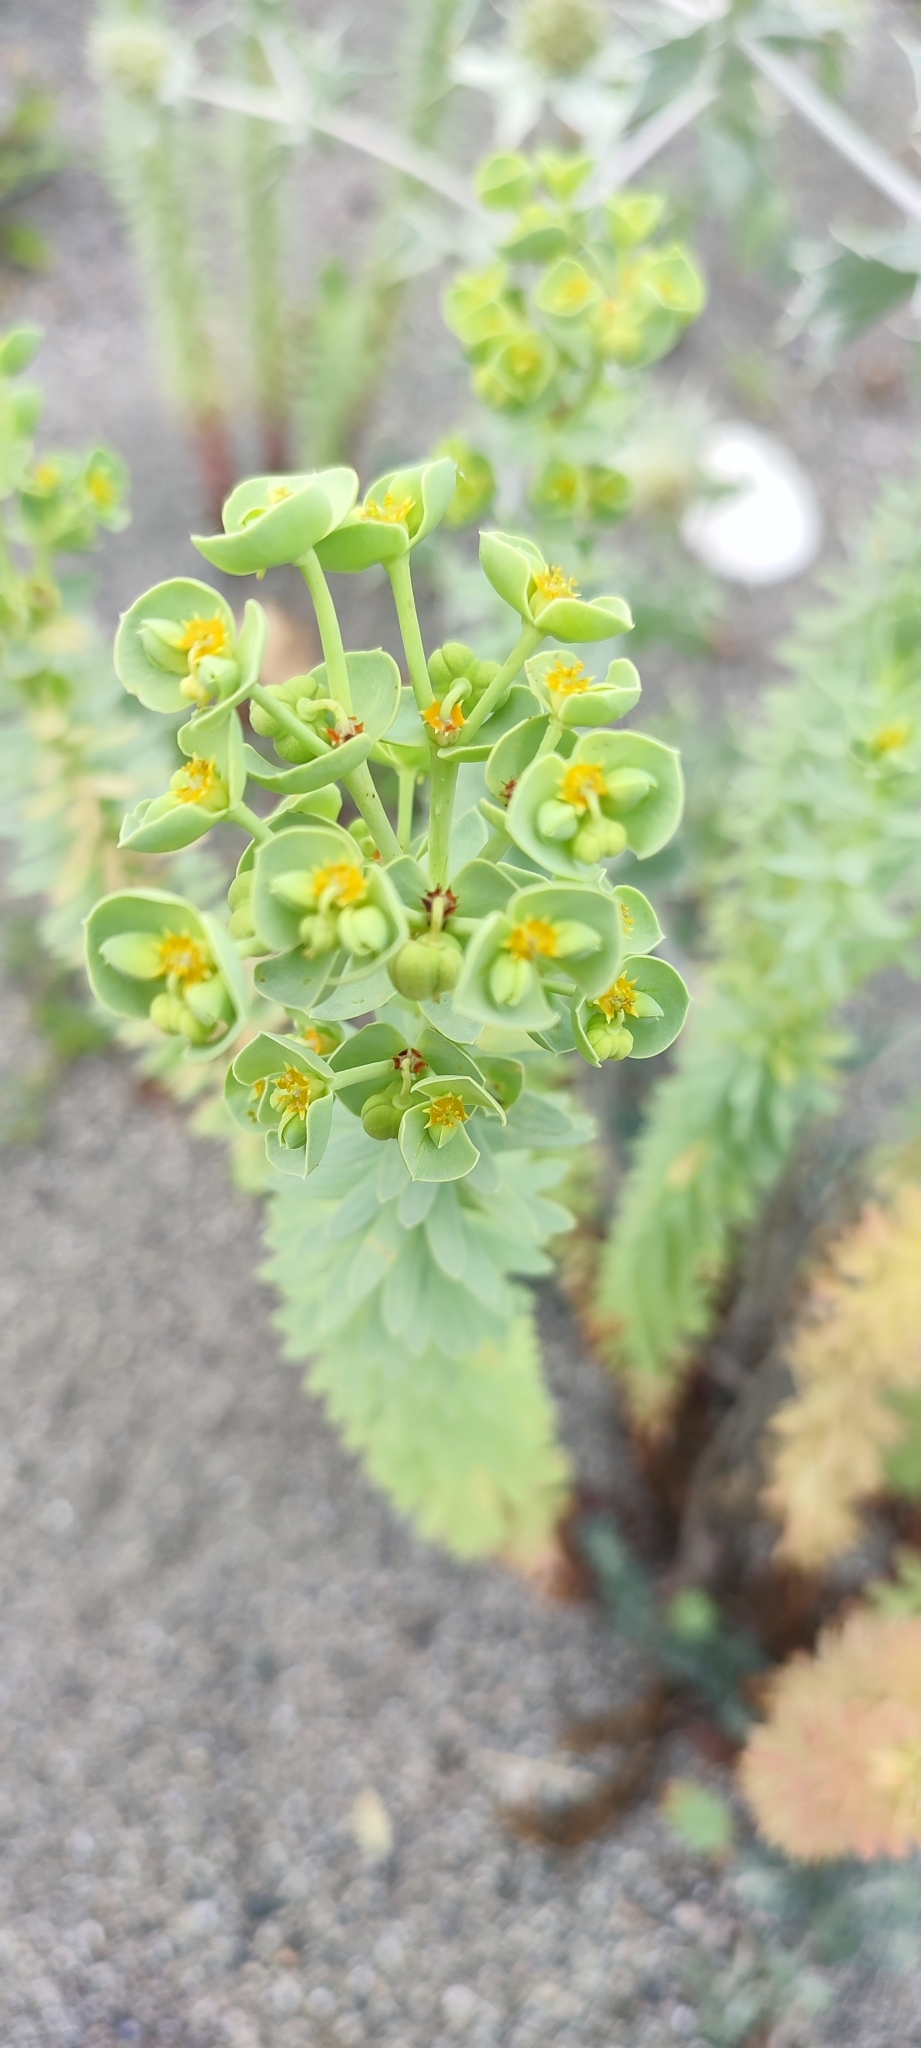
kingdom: Plantae
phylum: Tracheophyta
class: Magnoliopsida
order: Malpighiales
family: Euphorbiaceae
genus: Euphorbia
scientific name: Euphorbia paralias
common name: Sea spurge
